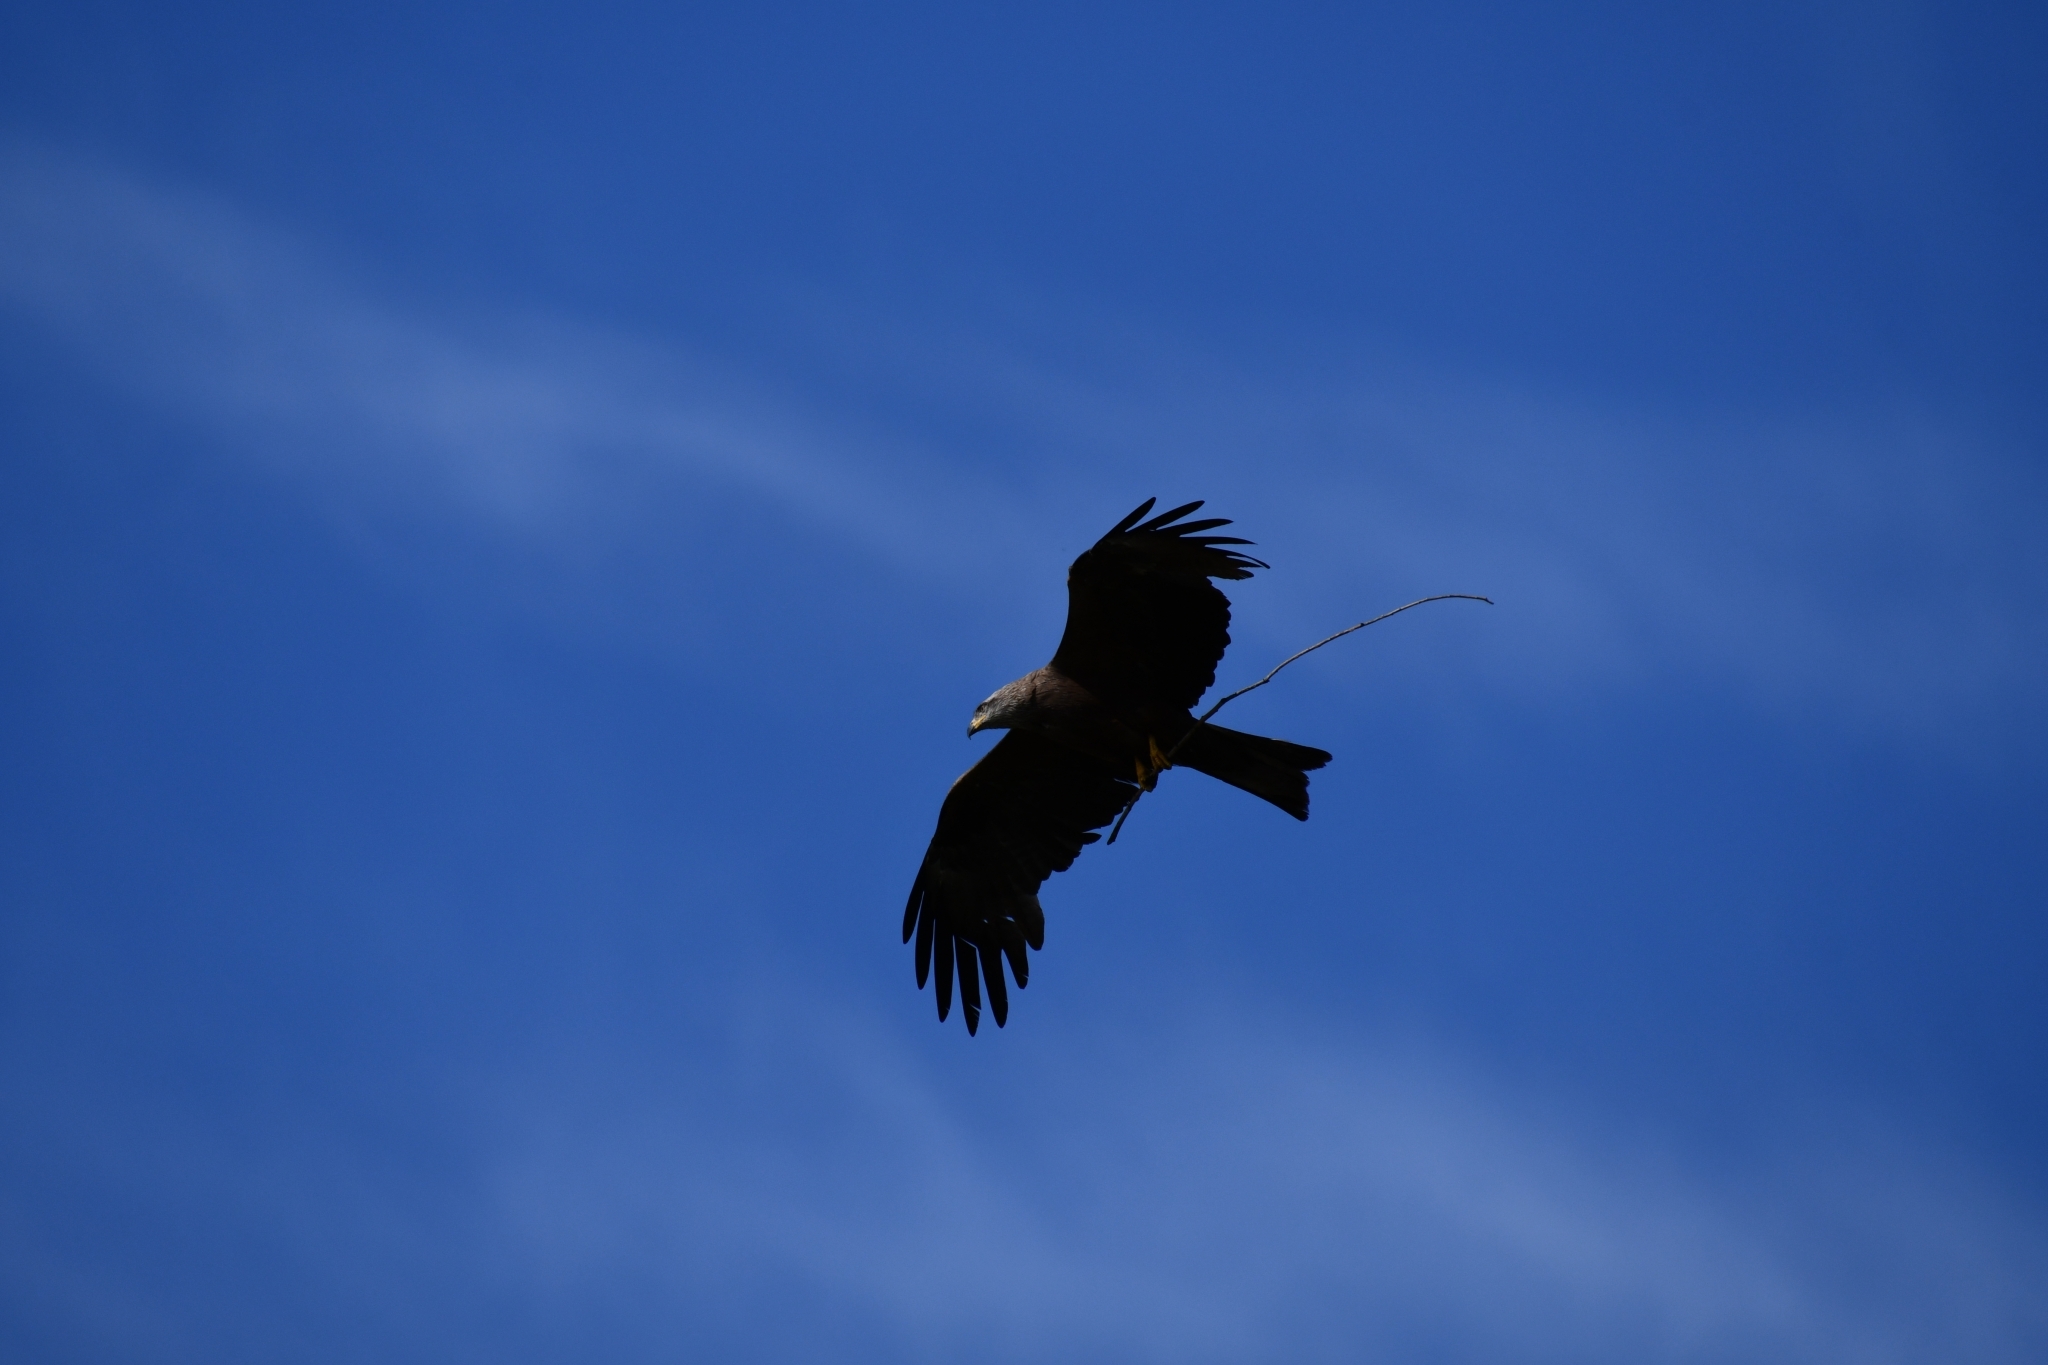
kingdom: Animalia
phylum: Chordata
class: Aves
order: Accipitriformes
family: Accipitridae
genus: Milvus
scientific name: Milvus migrans
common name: Black kite
